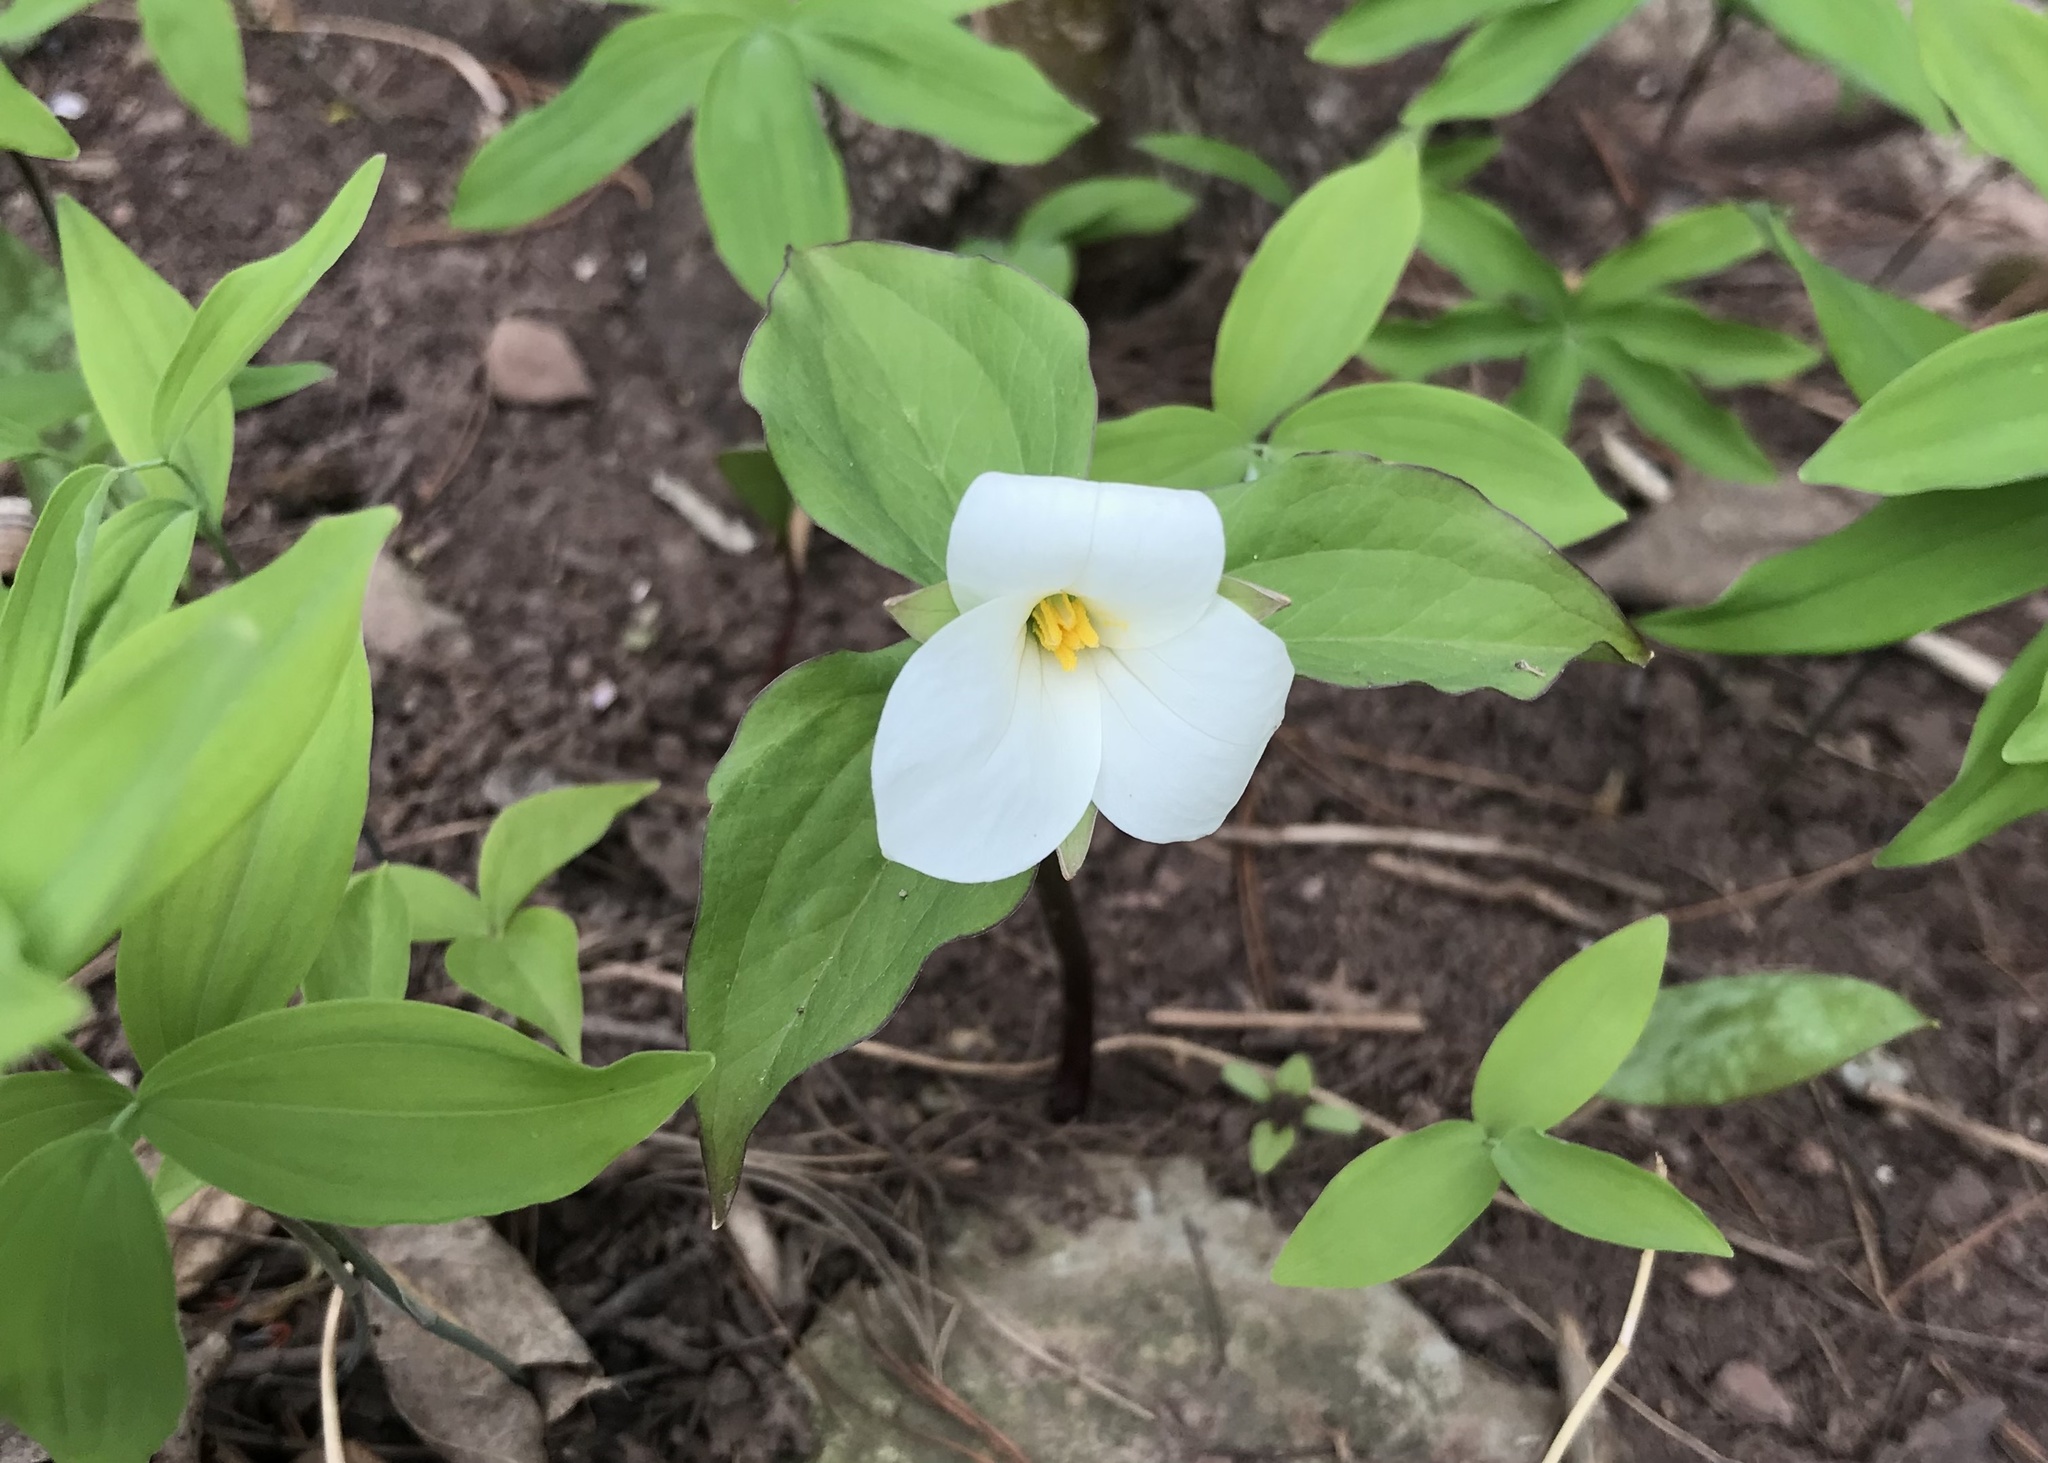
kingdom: Plantae
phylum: Tracheophyta
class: Liliopsida
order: Liliales
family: Melanthiaceae
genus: Trillium
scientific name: Trillium grandiflorum
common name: Great white trillium
